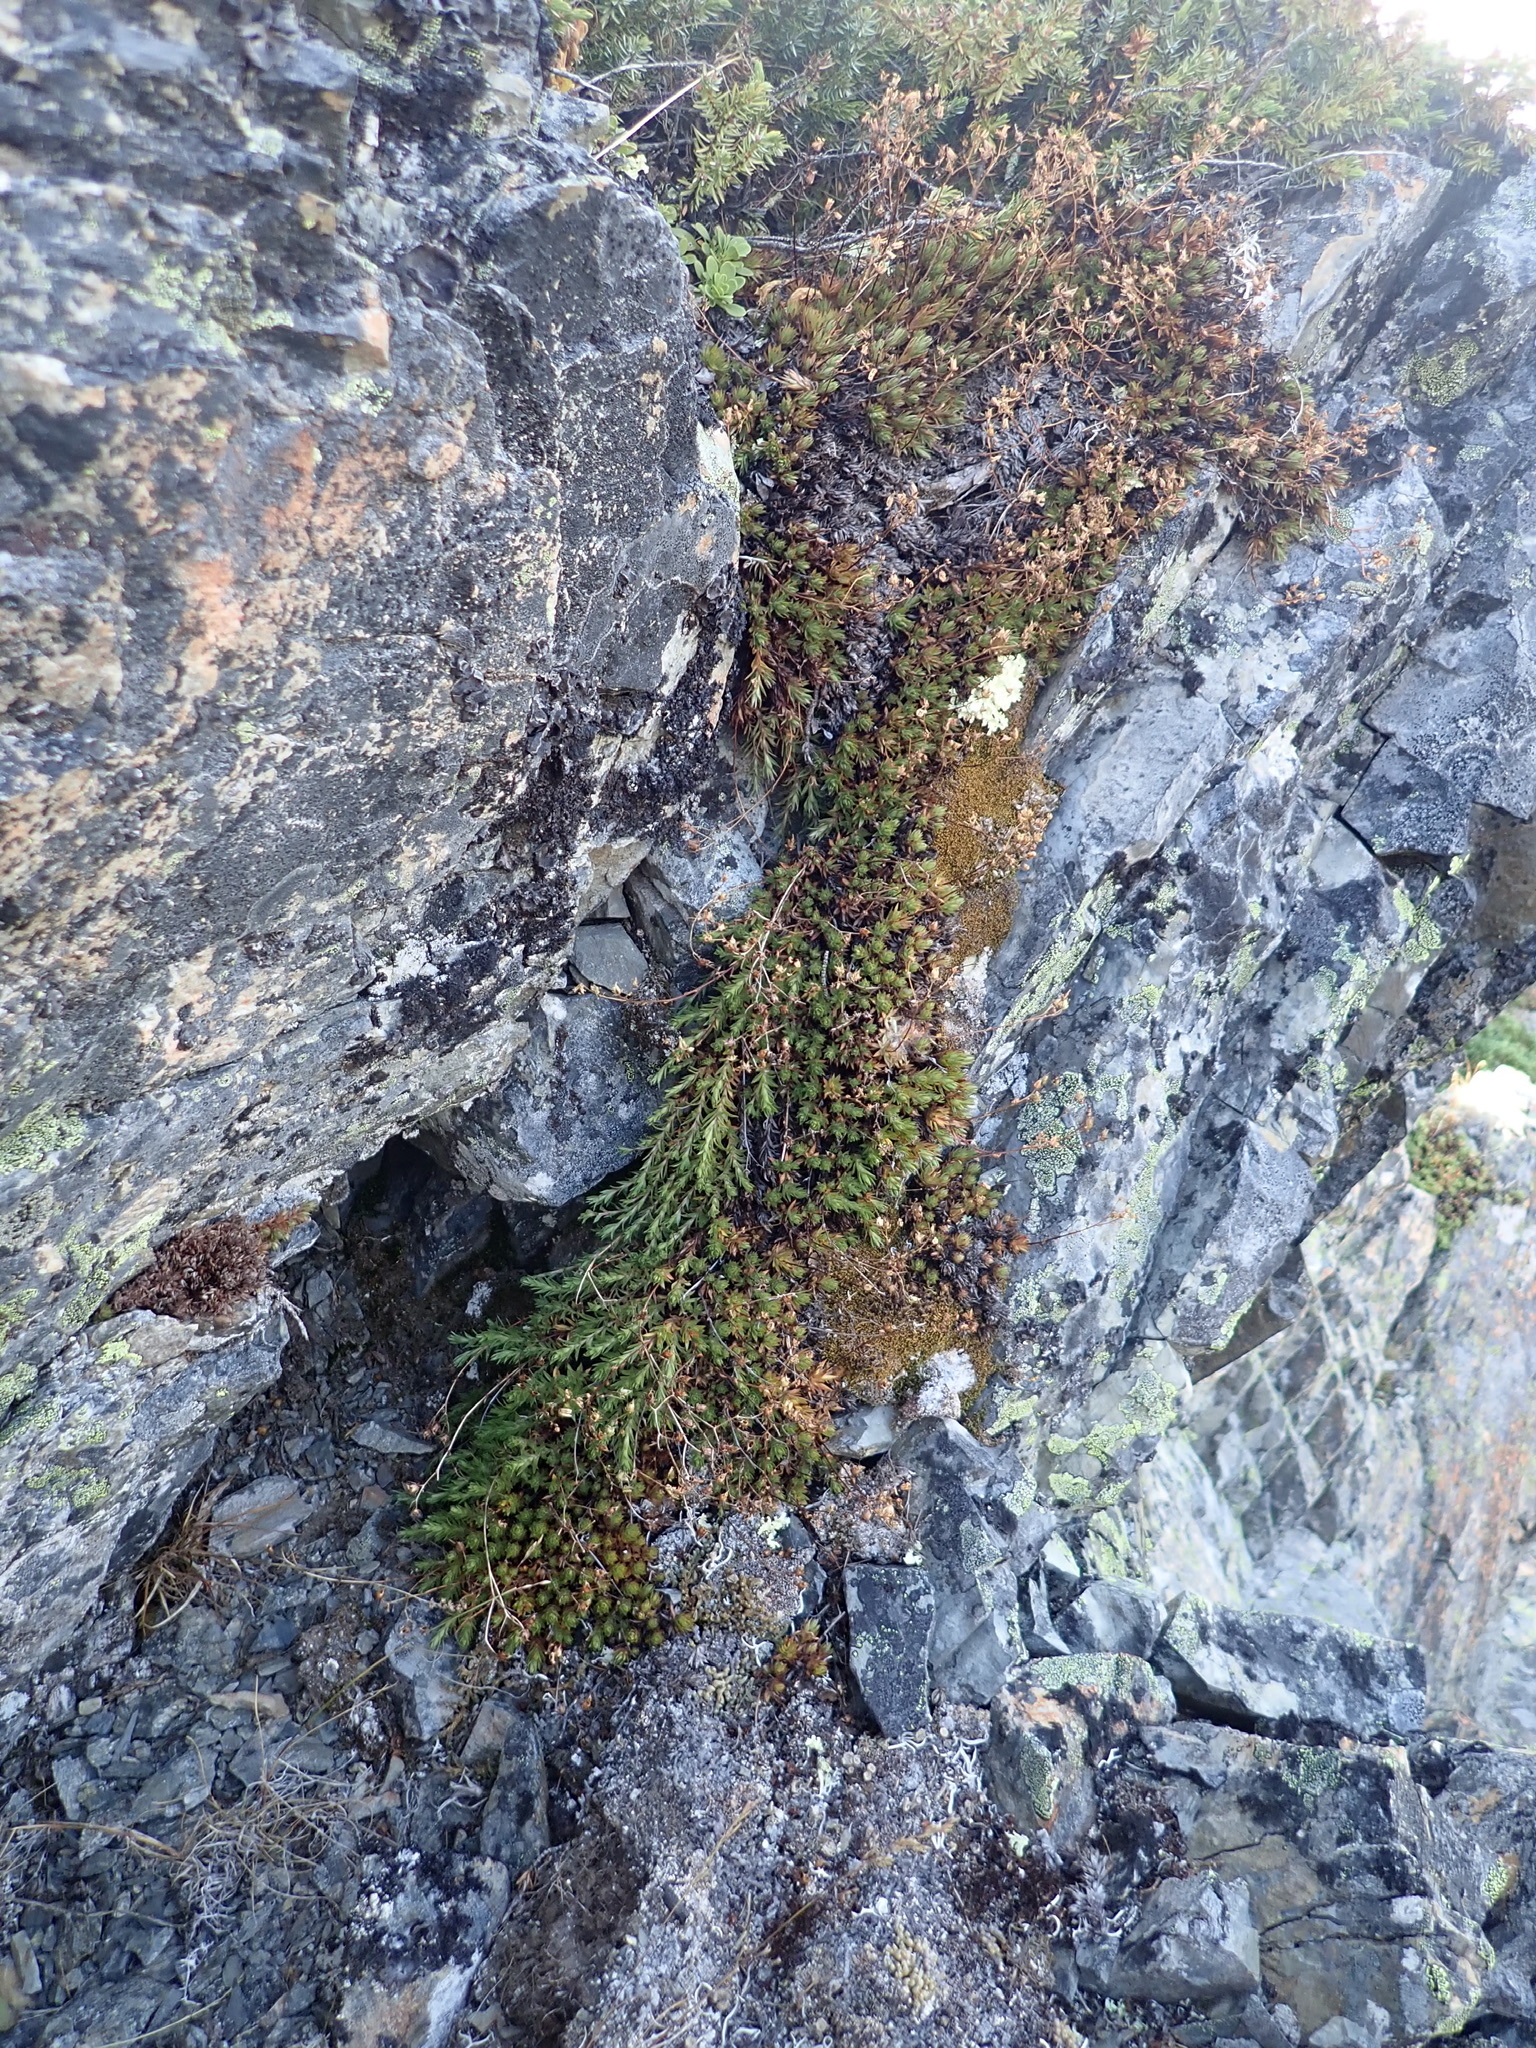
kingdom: Plantae
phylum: Tracheophyta
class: Magnoliopsida
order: Saxifragales
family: Saxifragaceae
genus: Saxifraga
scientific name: Saxifraga bronchialis
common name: Matted saxifrage
